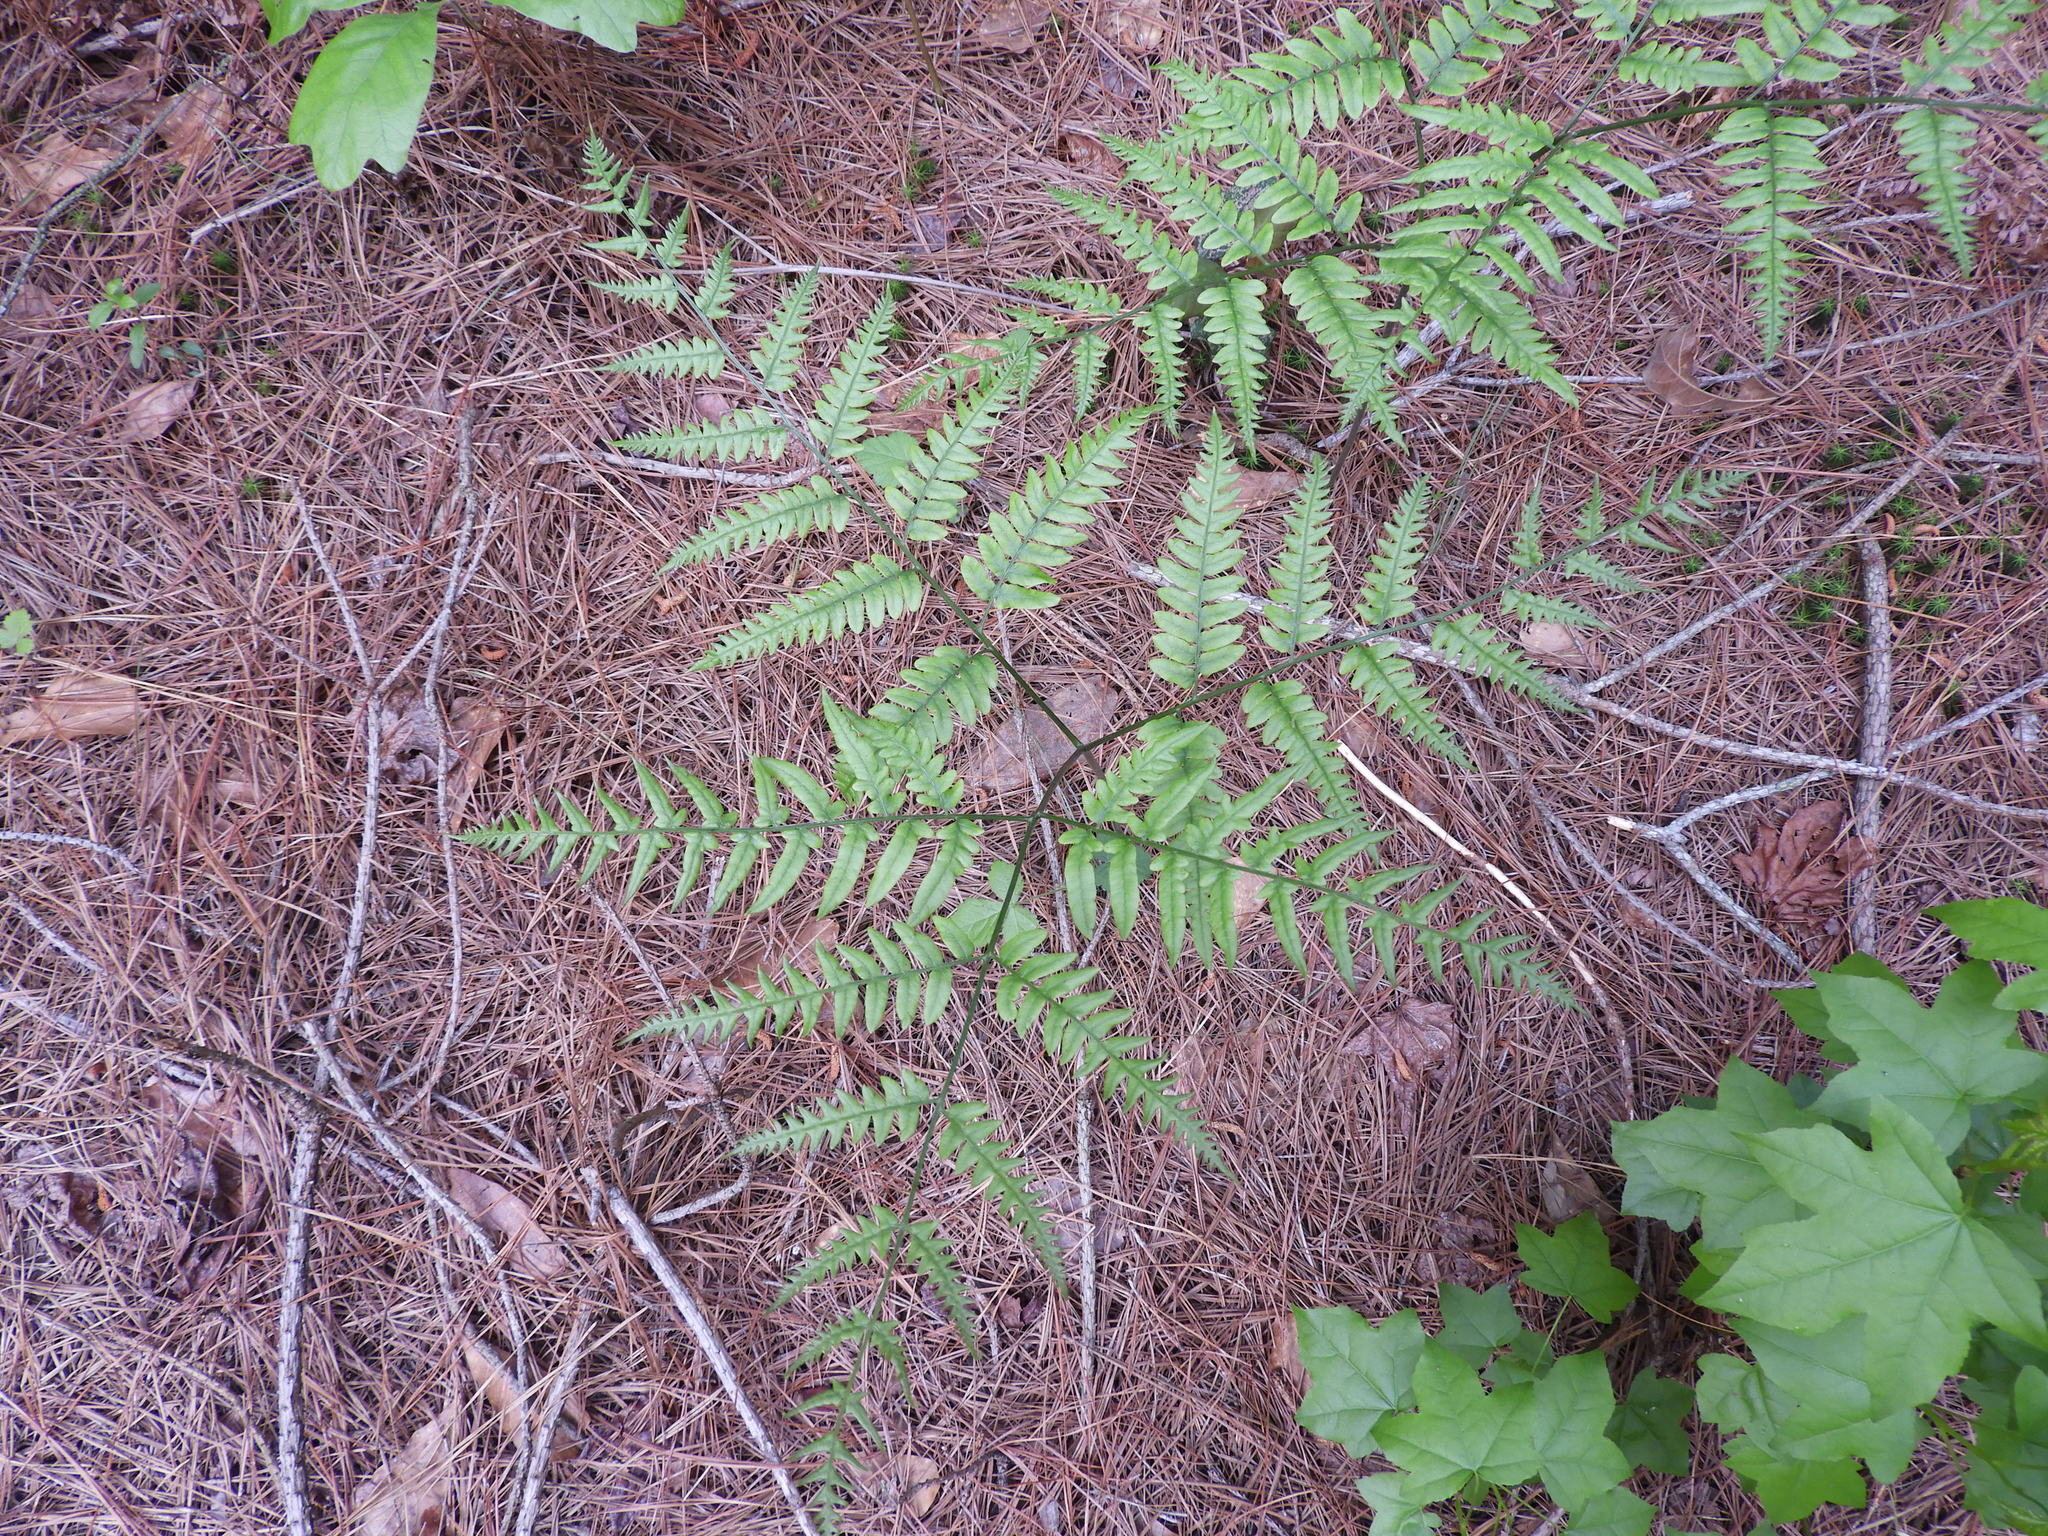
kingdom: Plantae
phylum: Tracheophyta
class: Polypodiopsida
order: Polypodiales
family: Dennstaedtiaceae
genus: Pteridium
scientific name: Pteridium aquilinum
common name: Bracken
